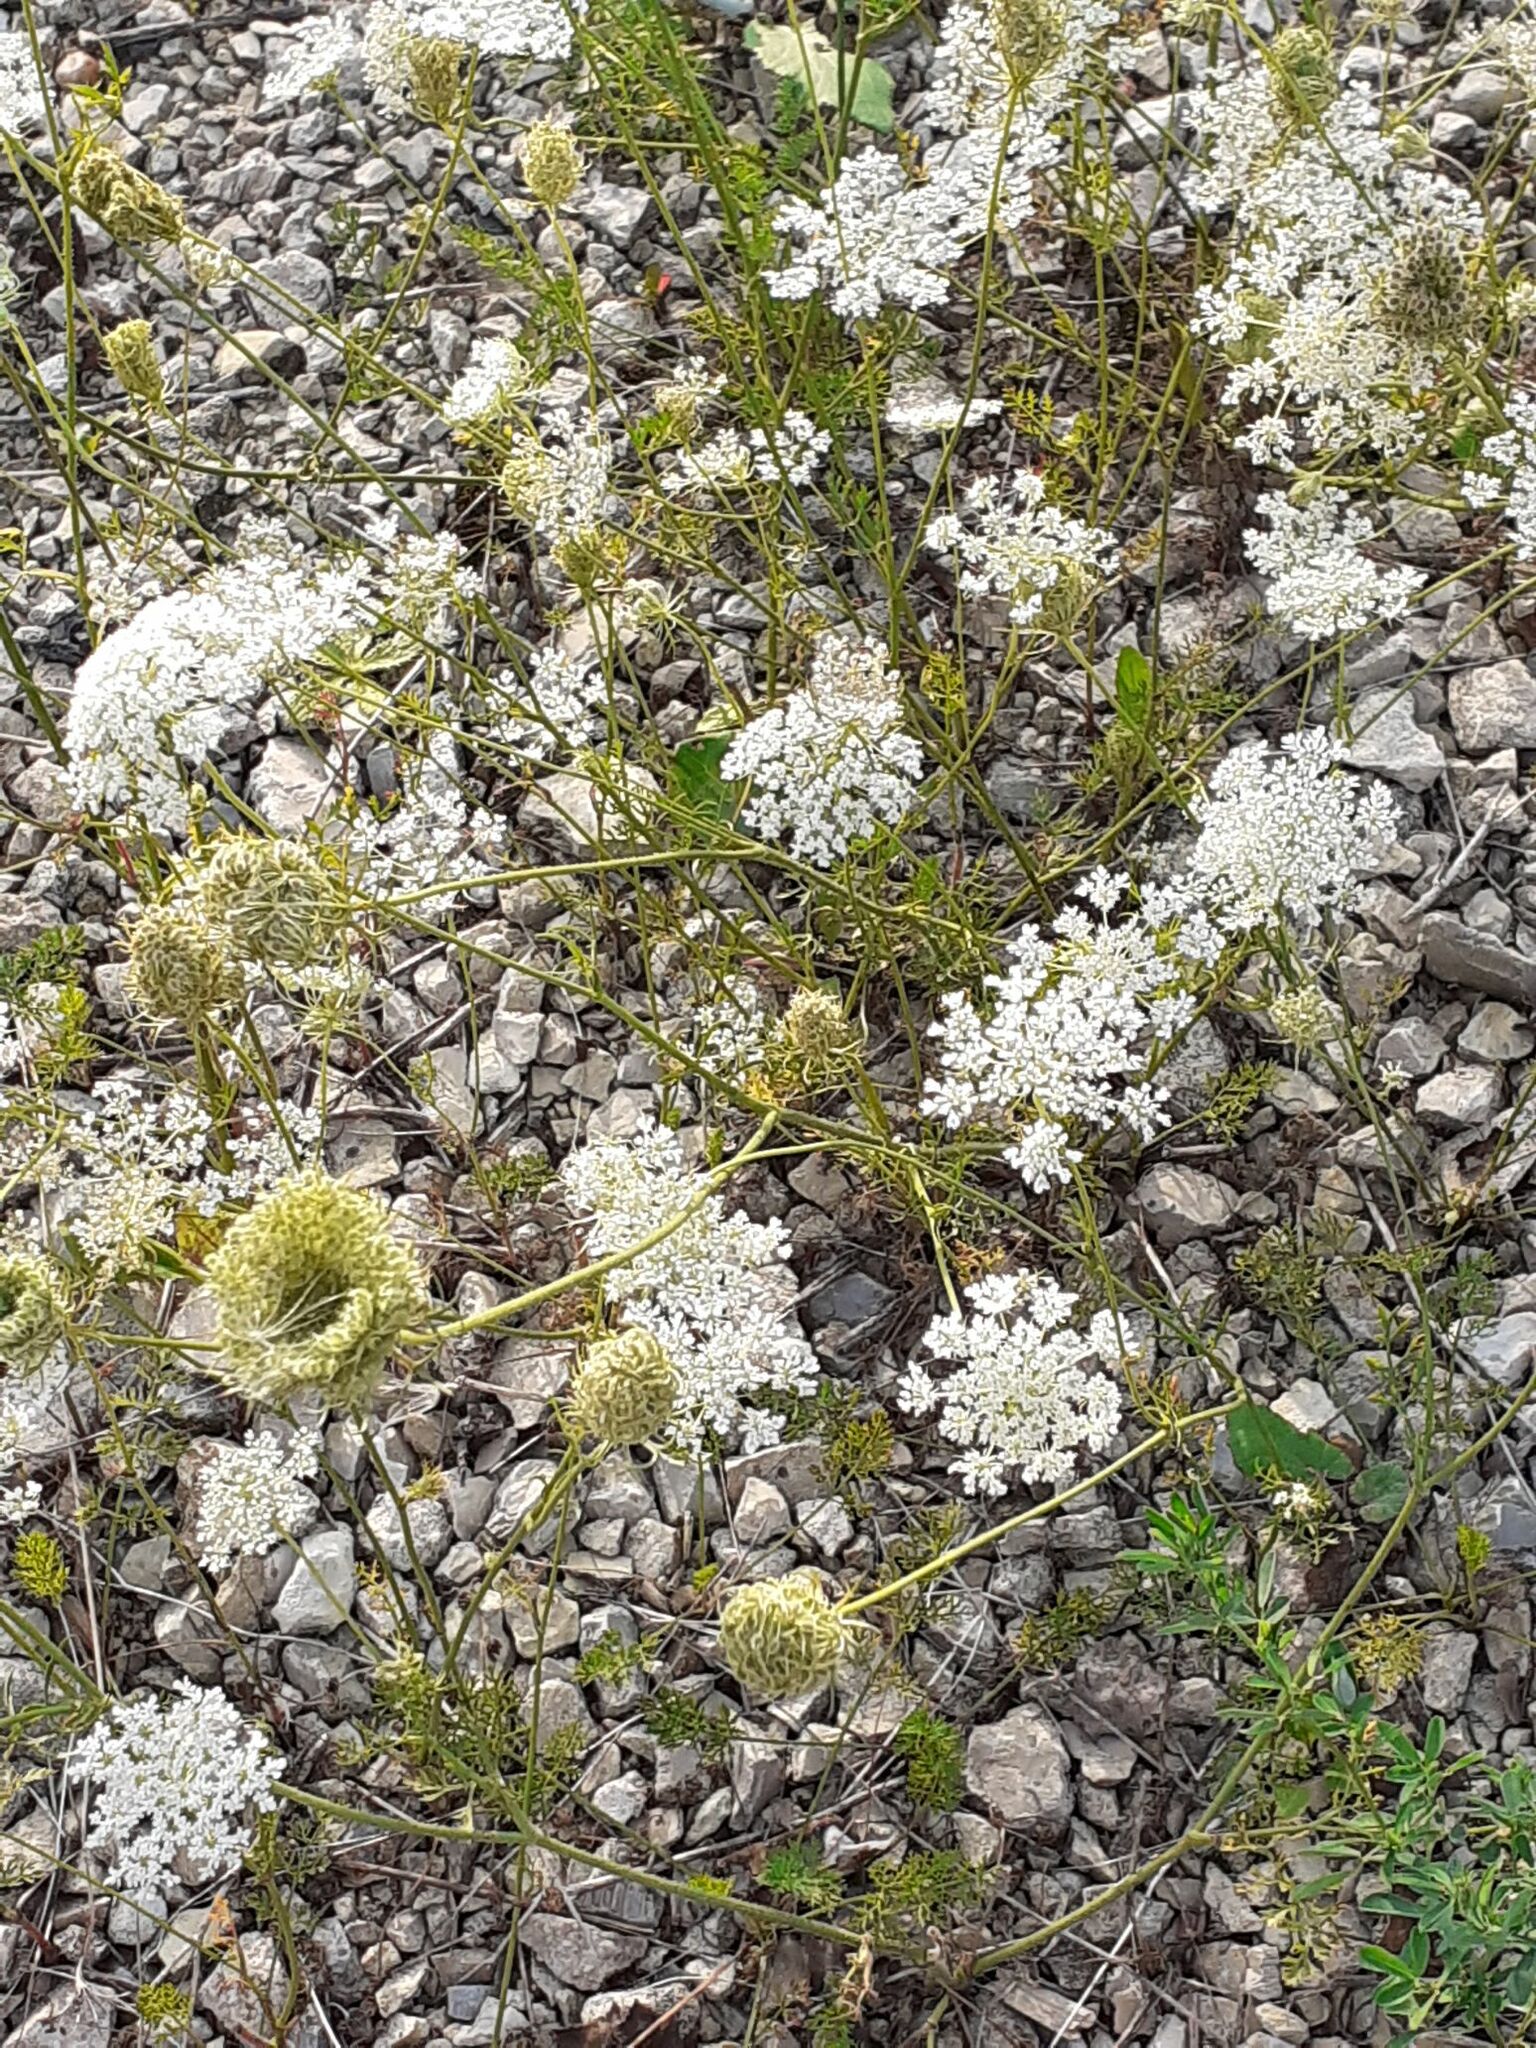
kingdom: Plantae
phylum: Tracheophyta
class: Magnoliopsida
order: Apiales
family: Apiaceae
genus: Daucus
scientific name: Daucus carota
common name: Wild carrot
